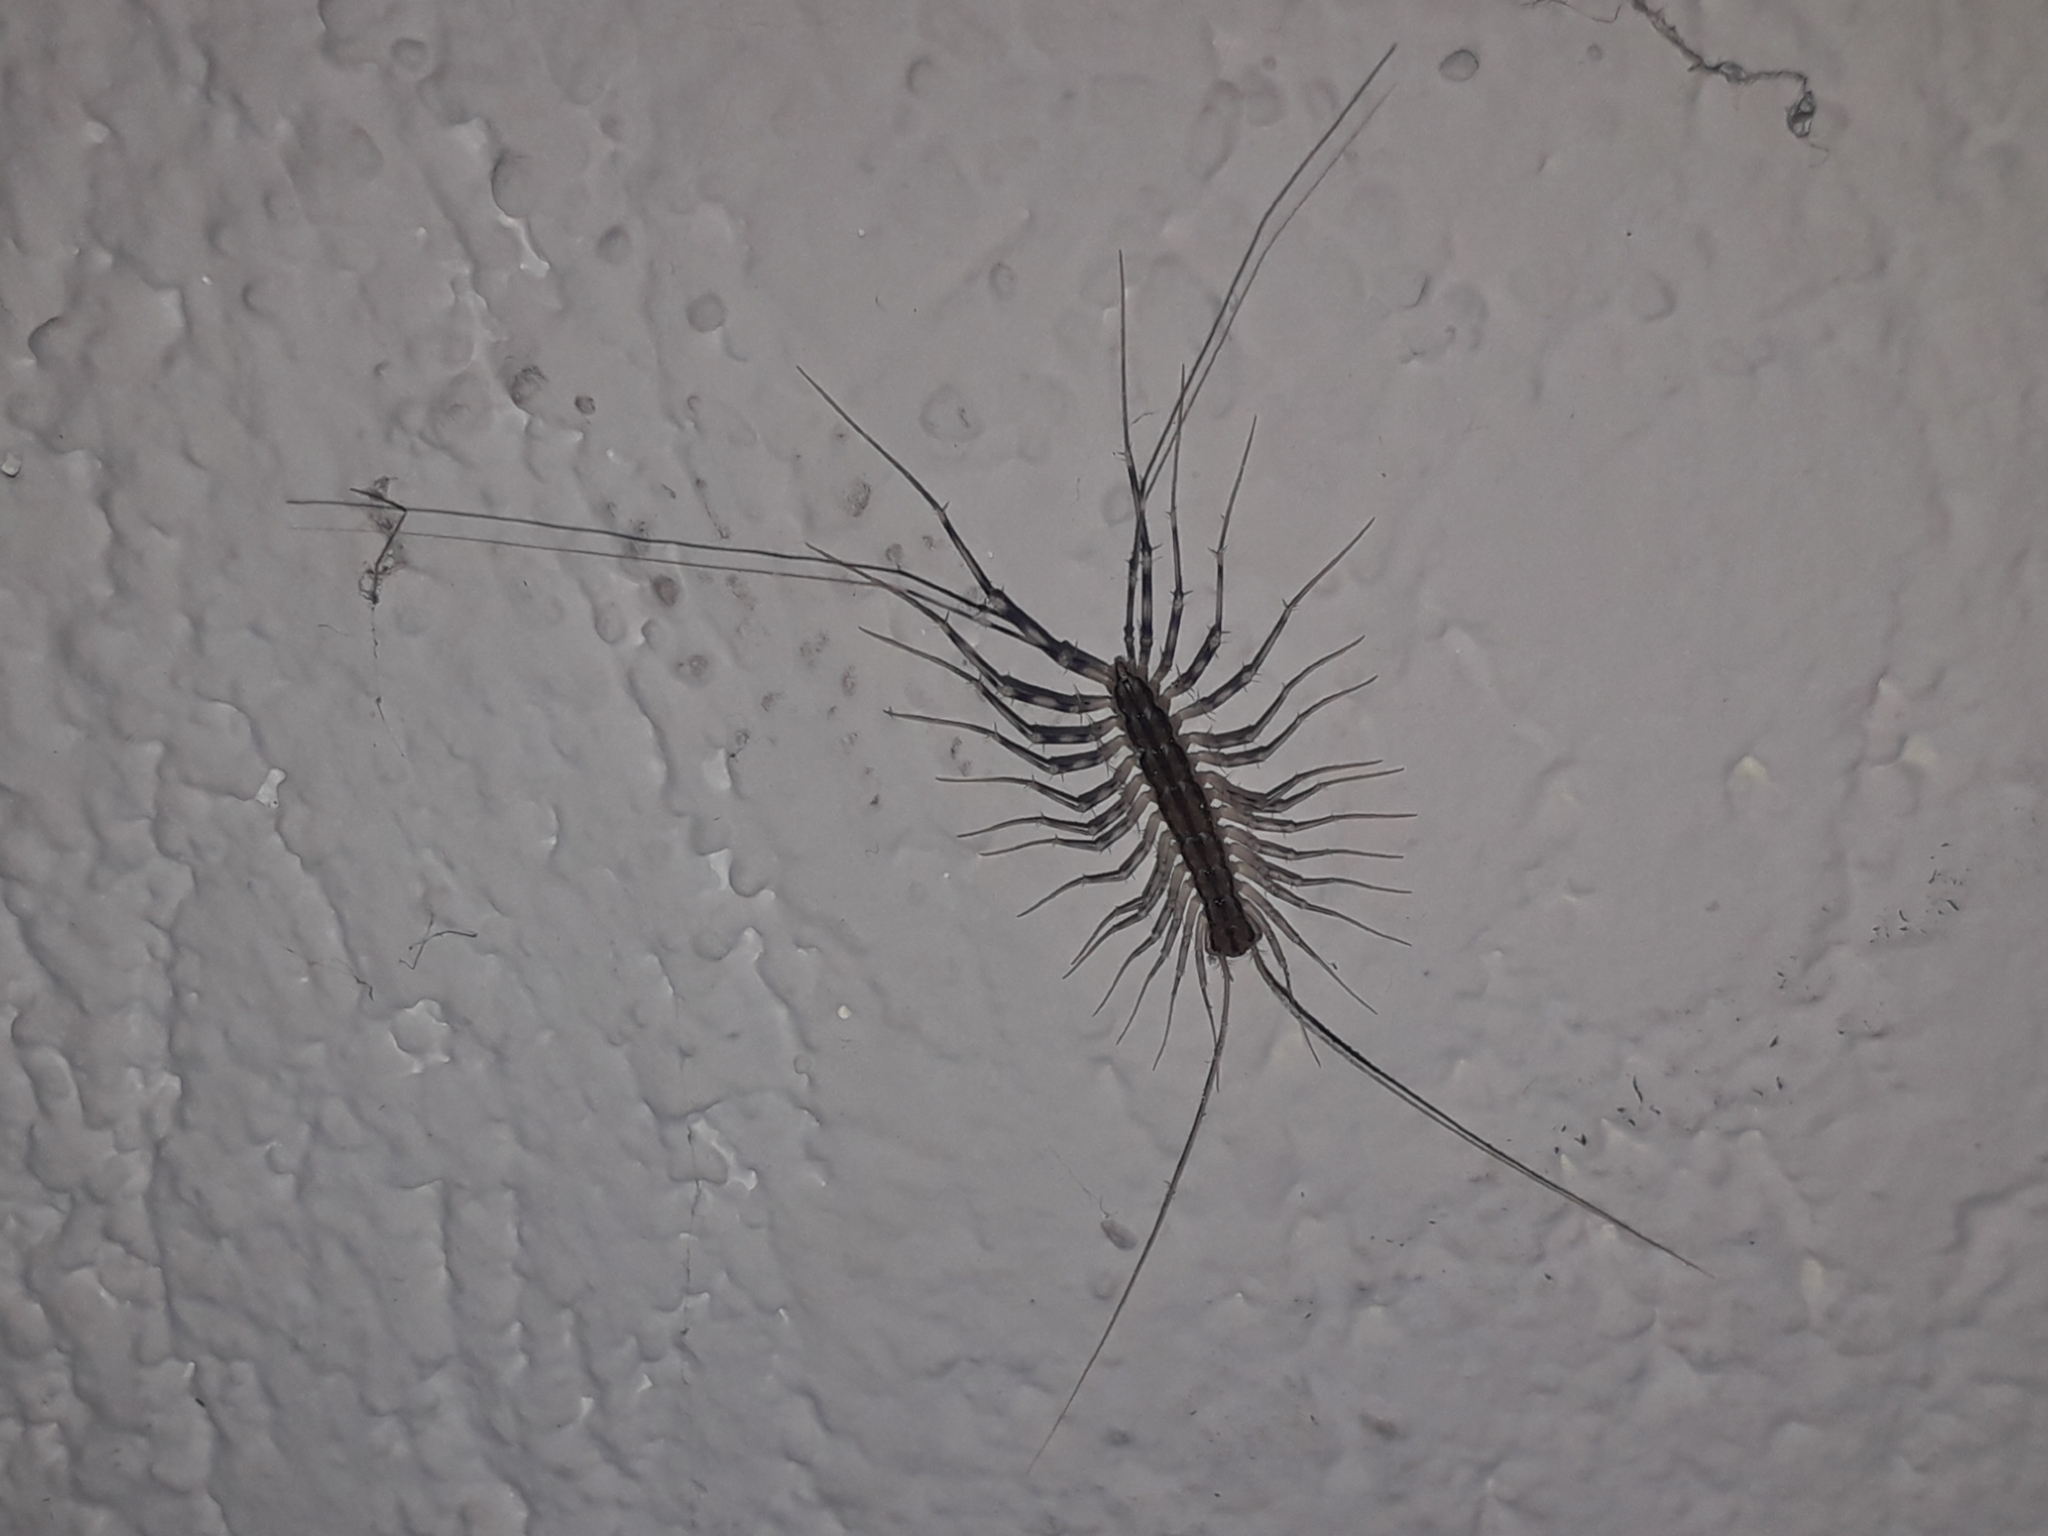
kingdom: Animalia
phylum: Arthropoda
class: Chilopoda
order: Scutigeromorpha
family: Scutigeridae
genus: Scutigera
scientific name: Scutigera coleoptrata
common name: House centipede
